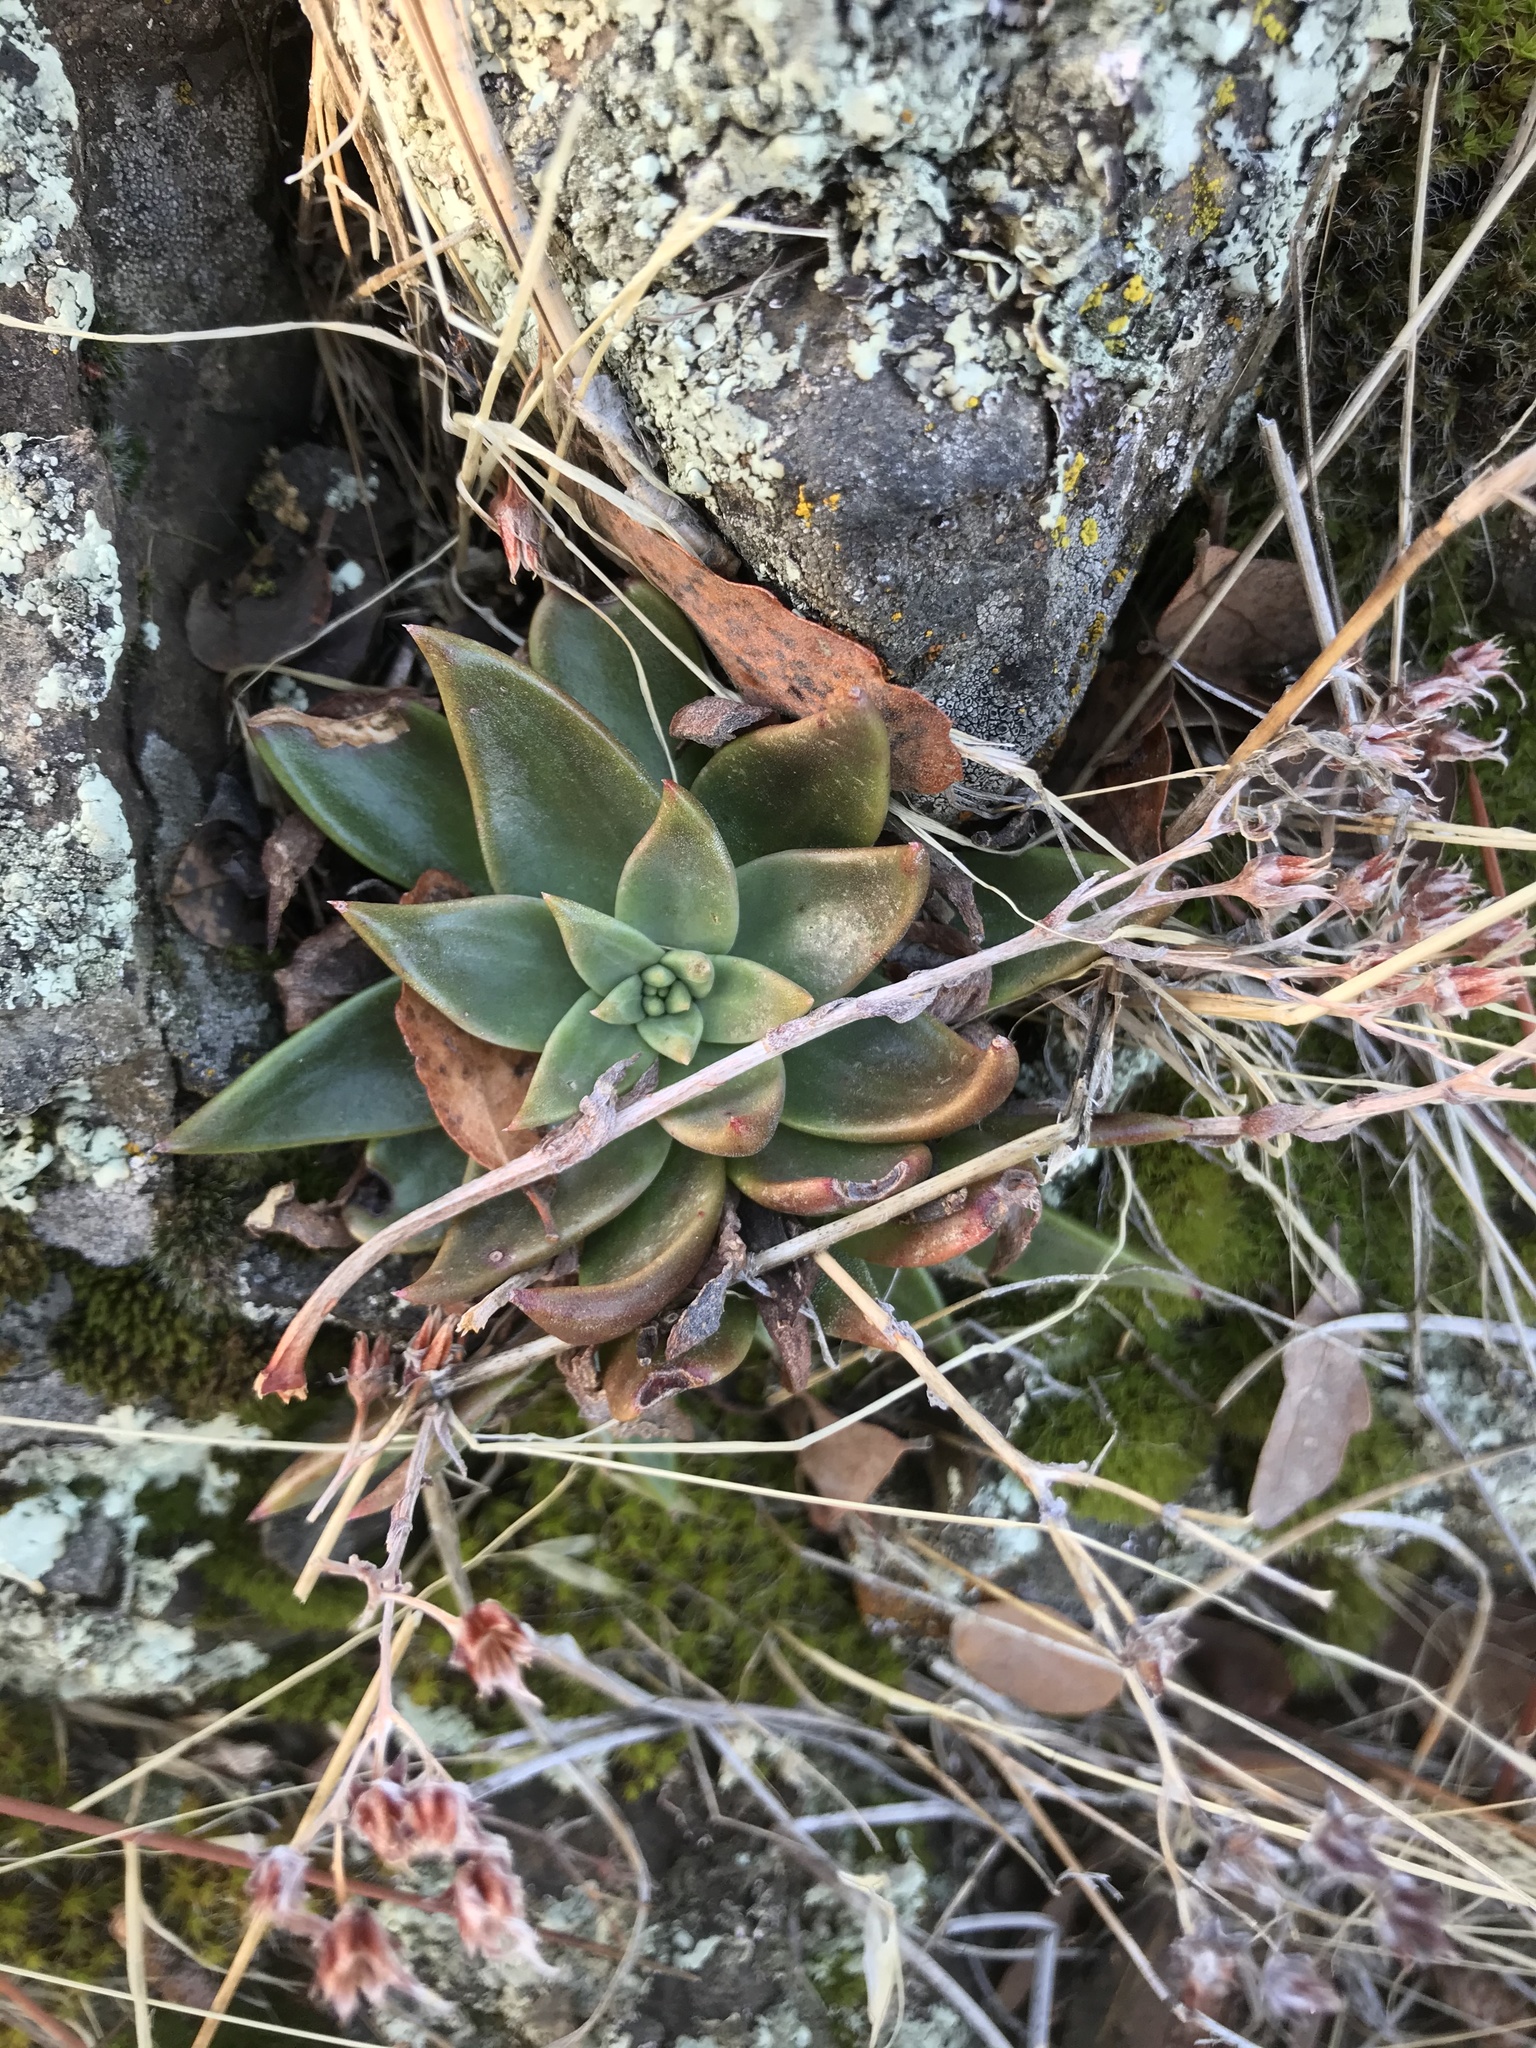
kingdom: Plantae
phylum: Tracheophyta
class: Magnoliopsida
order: Saxifragales
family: Crassulaceae
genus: Dudleya
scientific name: Dudleya cymosa
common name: Canyon dudleya
